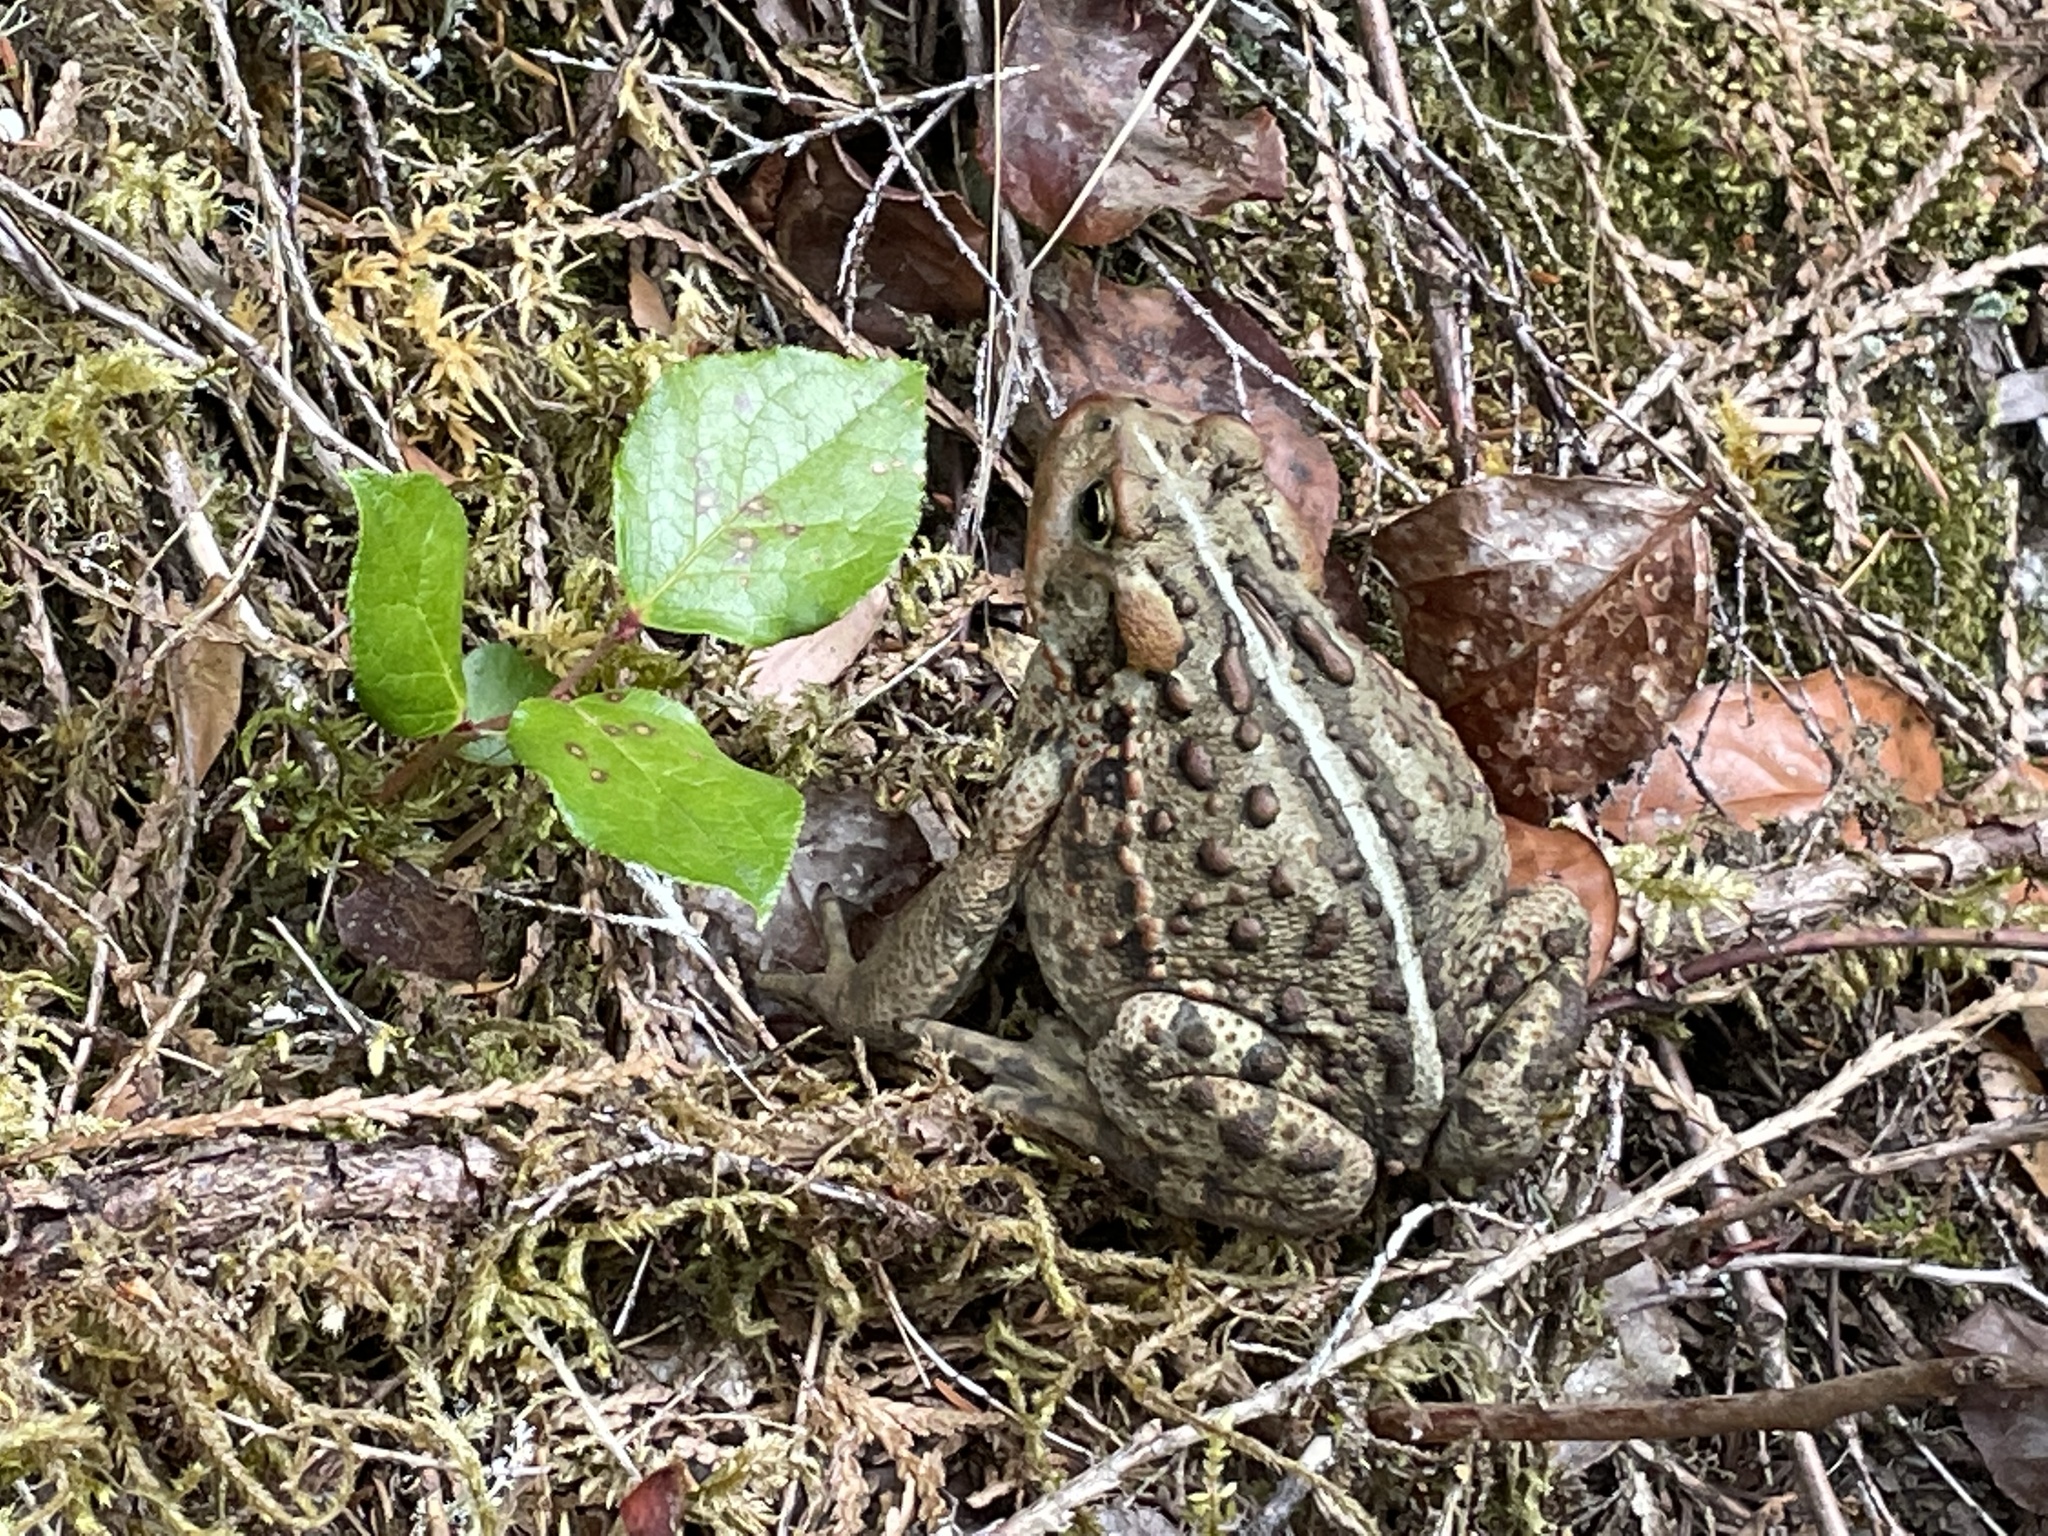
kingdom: Animalia
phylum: Chordata
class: Amphibia
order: Anura
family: Bufonidae
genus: Anaxyrus
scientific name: Anaxyrus boreas
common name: Western toad
